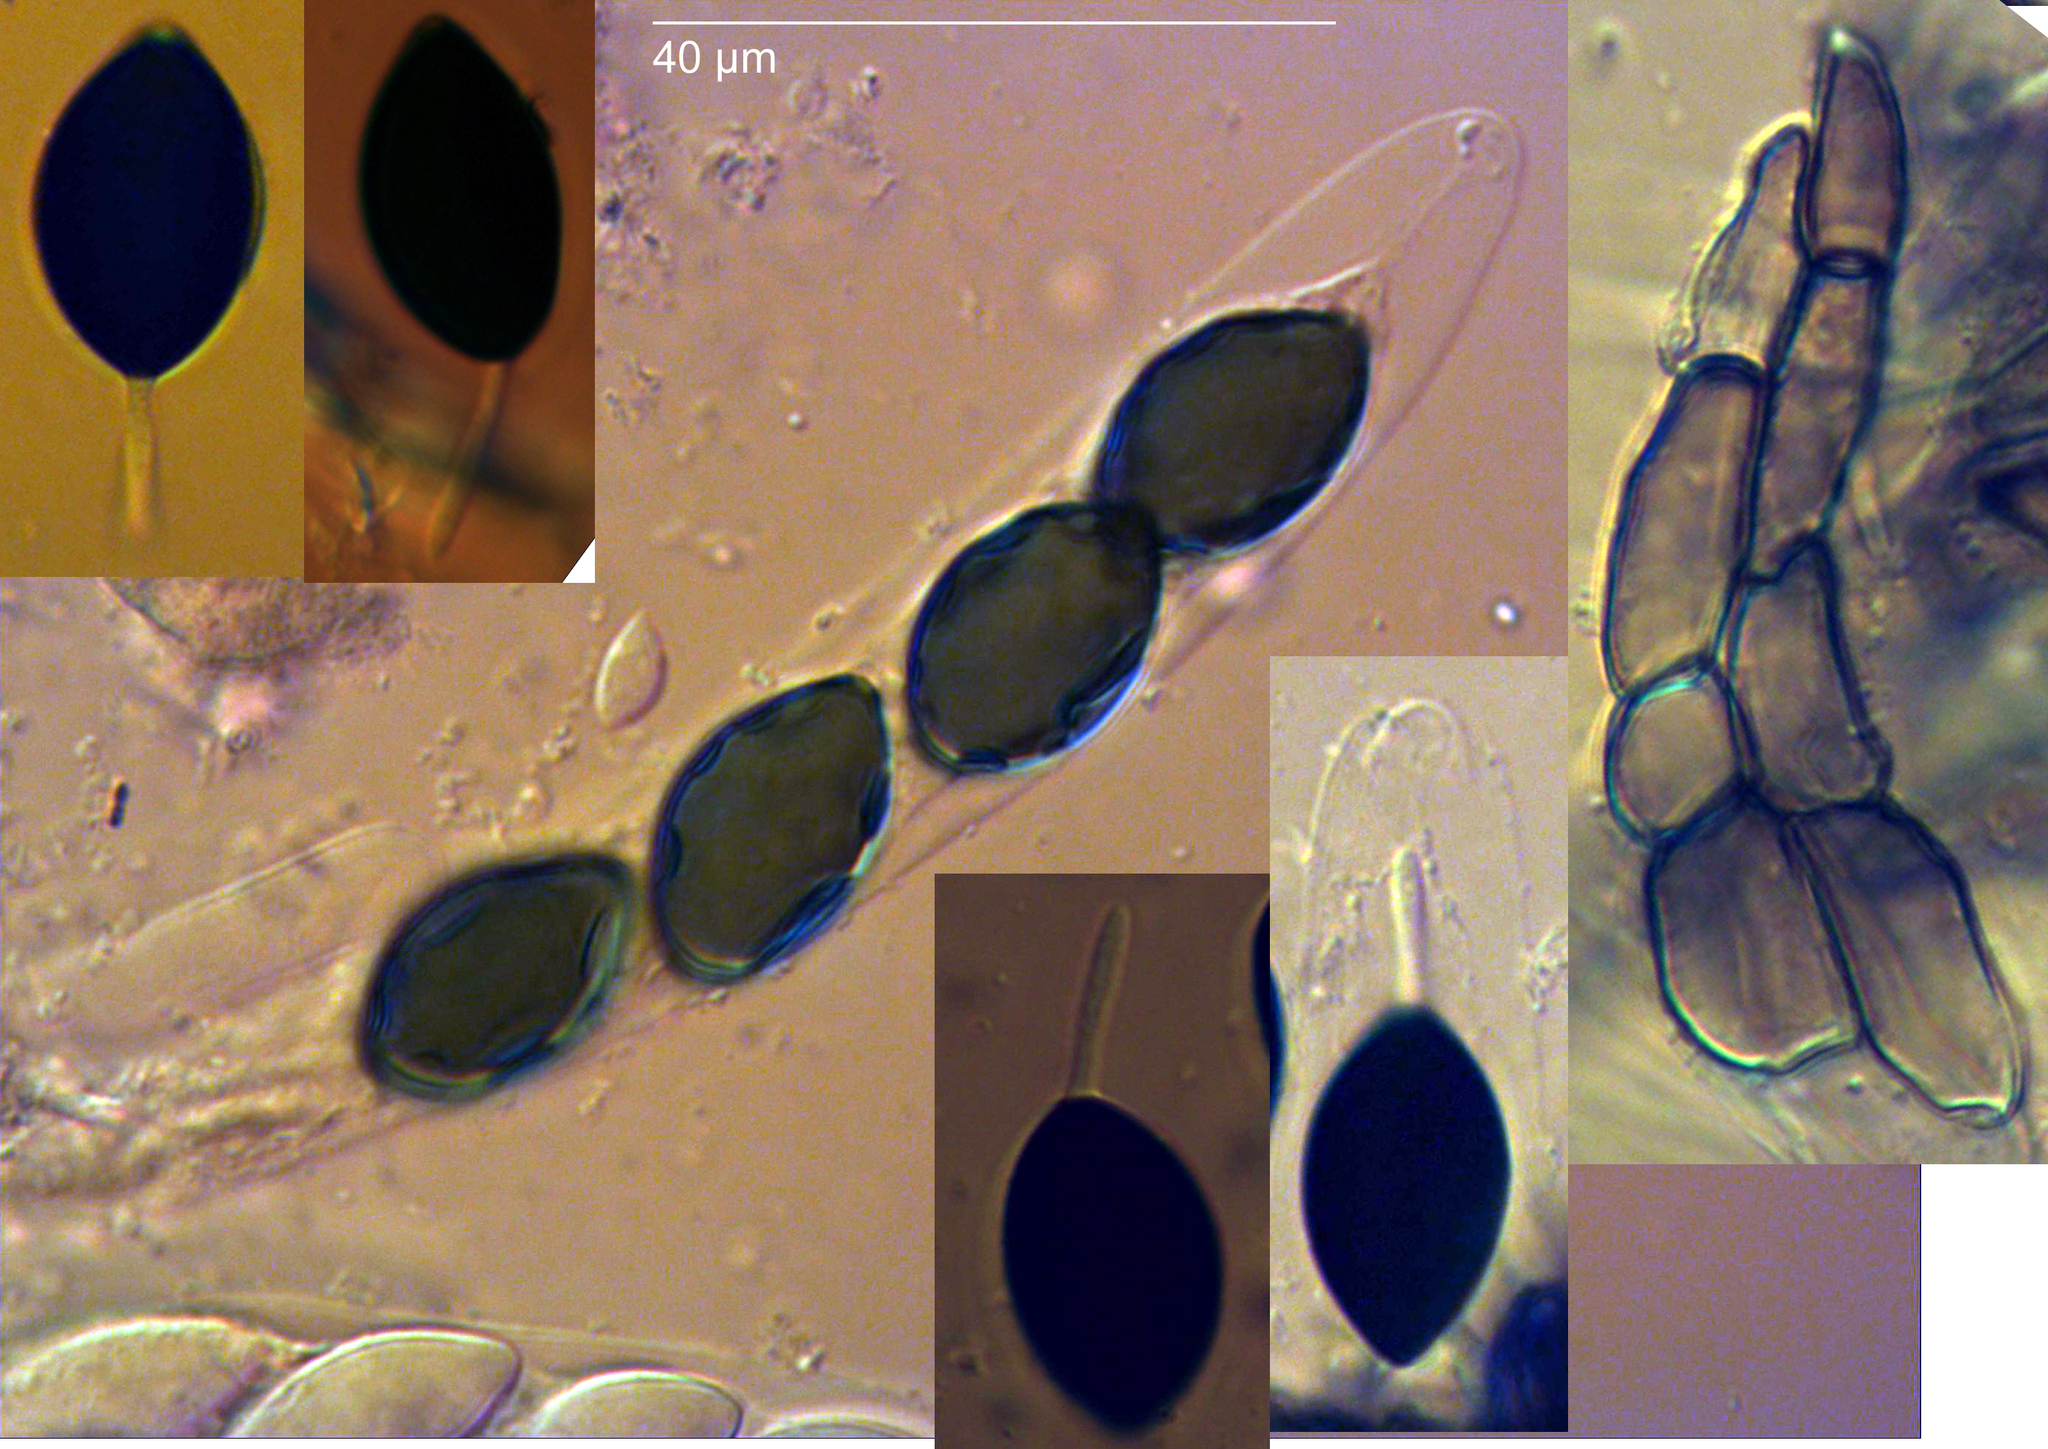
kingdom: Fungi
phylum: Ascomycota
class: Sordariomycetes
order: Sordariales
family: Neoschizotheciaceae
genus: Neoschizothecium
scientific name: Neoschizothecium tetrasporum
